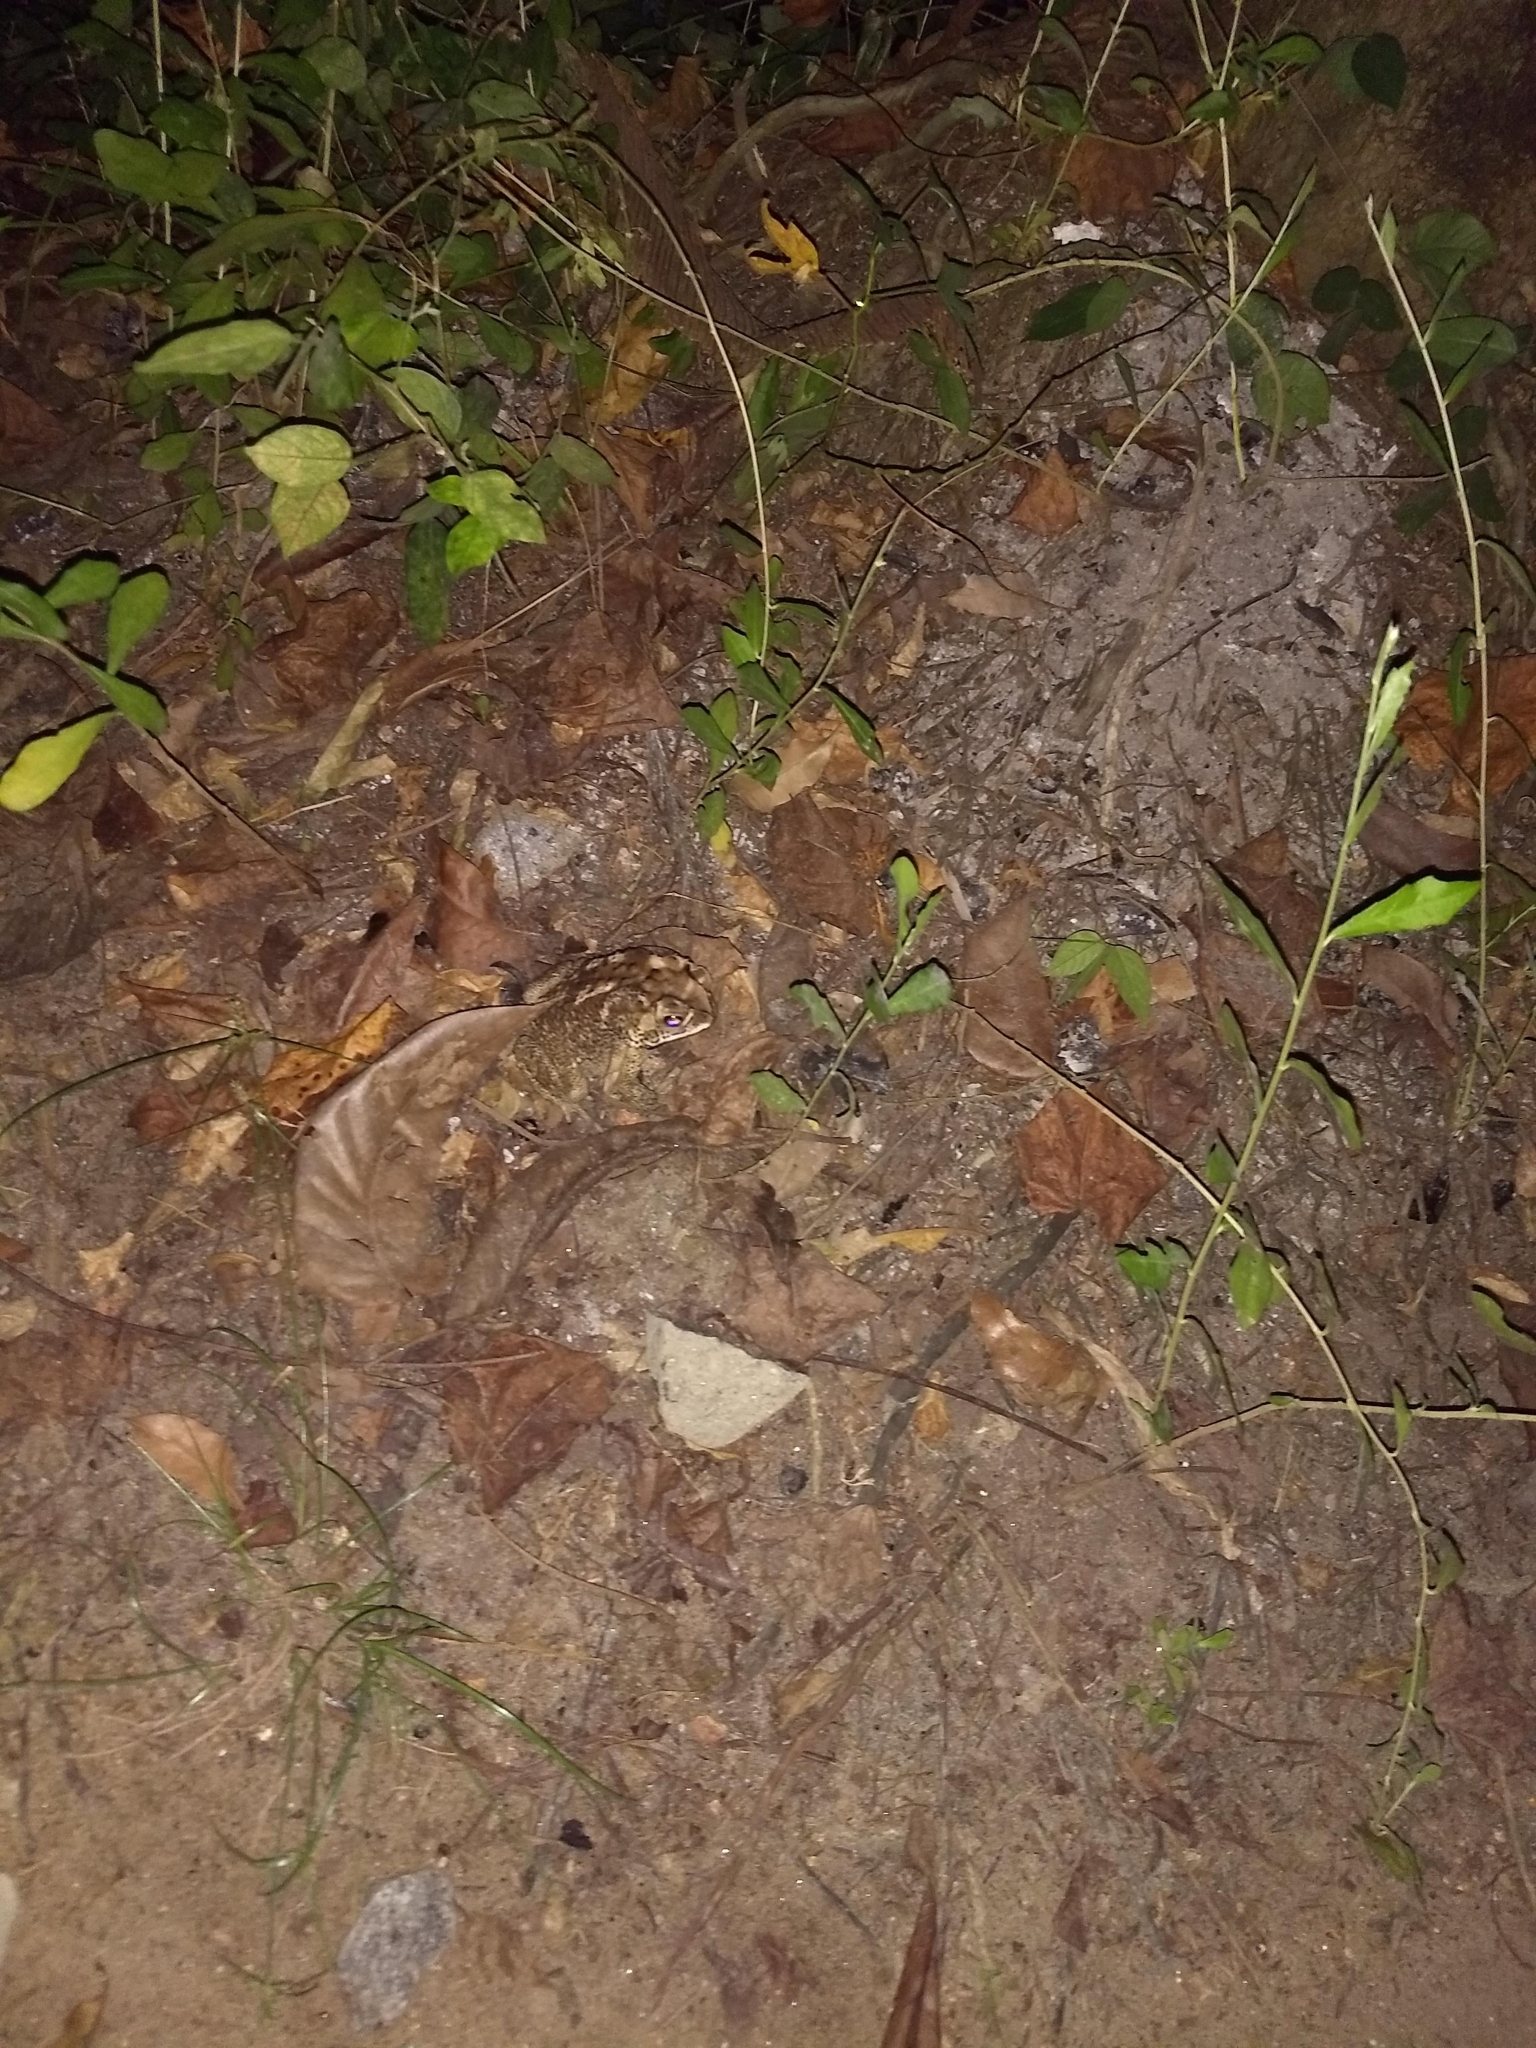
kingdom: Animalia
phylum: Chordata
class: Amphibia
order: Anura
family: Bufonidae
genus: Duttaphrynus
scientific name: Duttaphrynus melanostictus
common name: Common sunda toad
